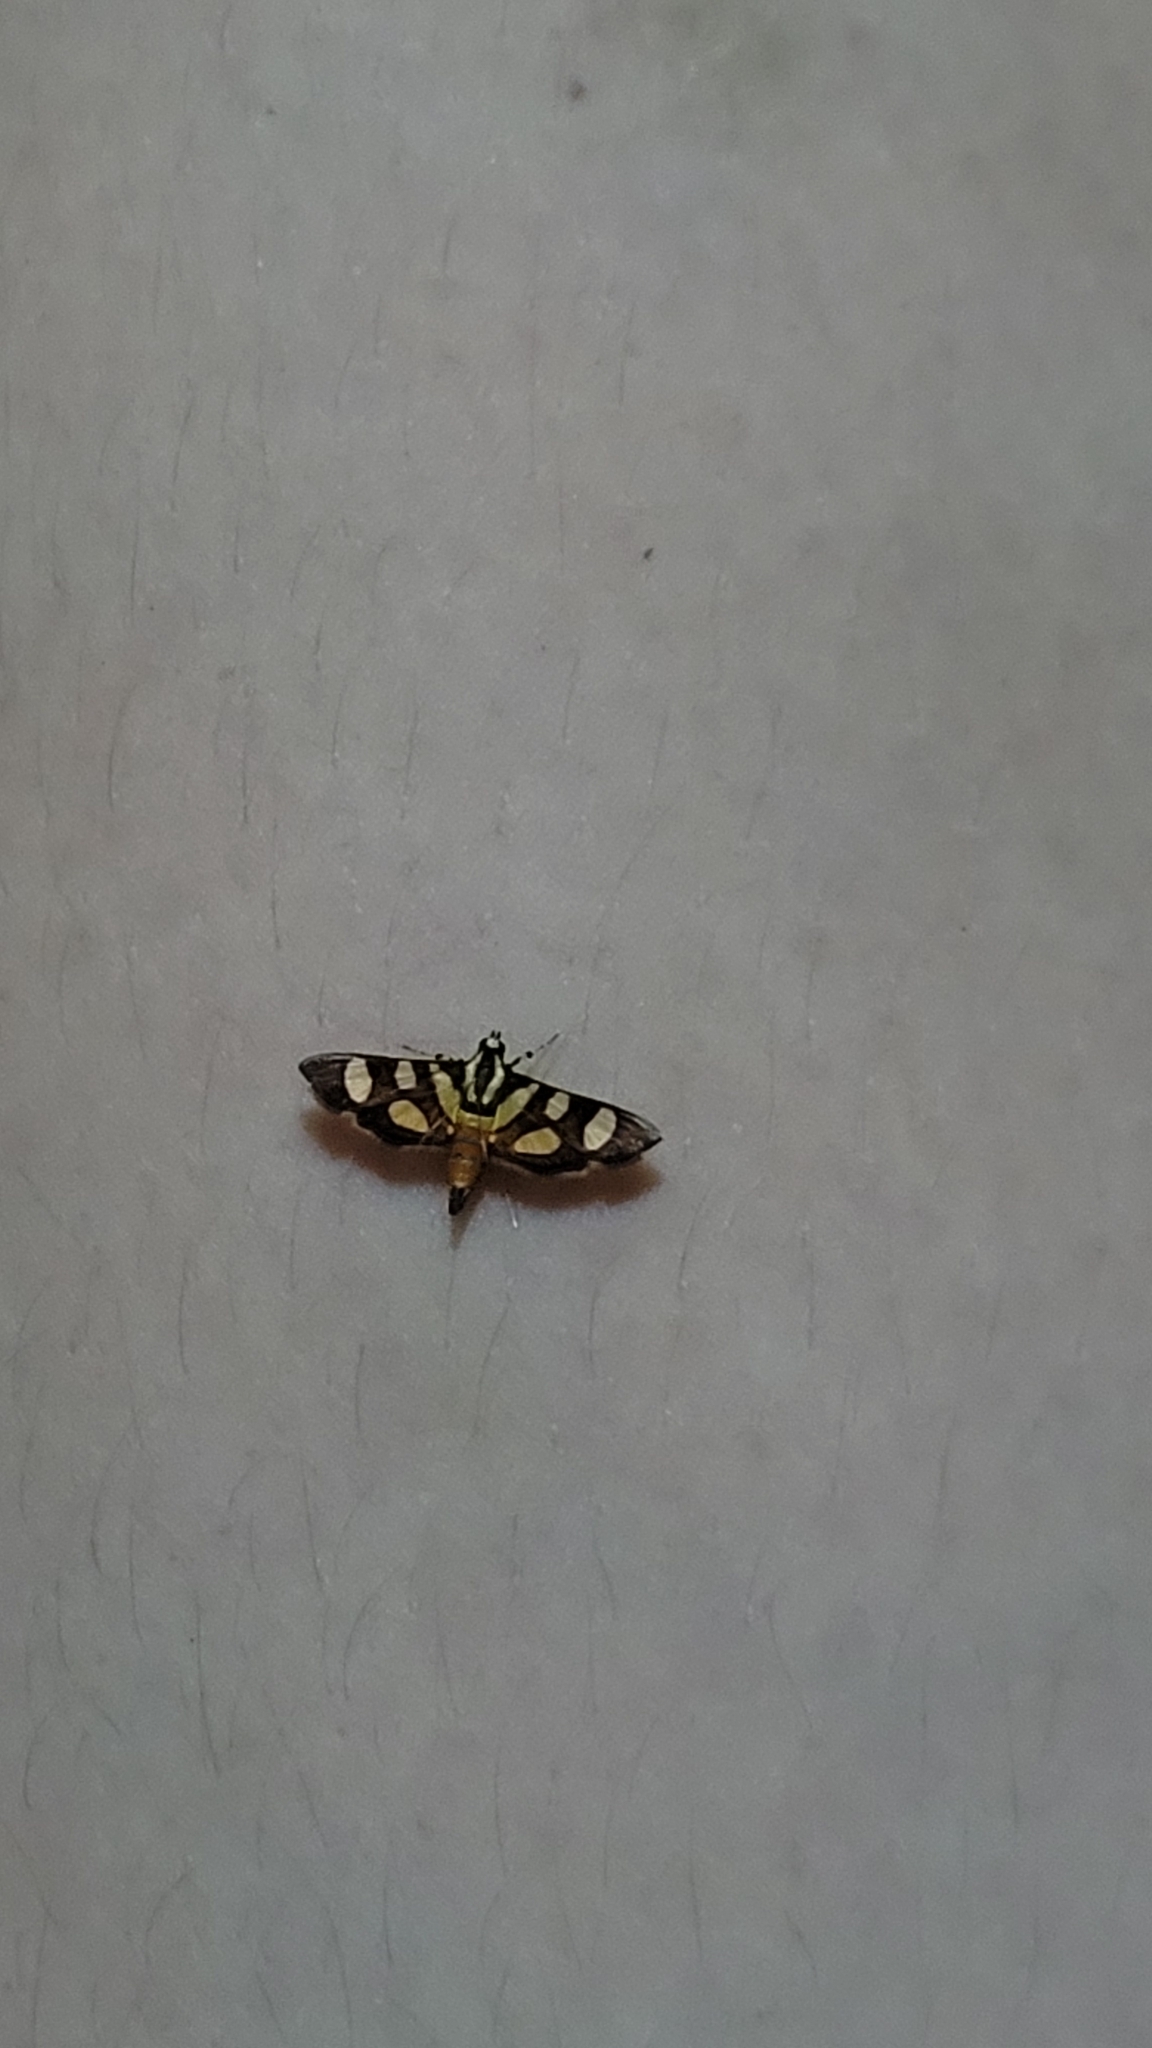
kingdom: Animalia
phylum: Arthropoda
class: Insecta
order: Lepidoptera
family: Crambidae
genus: Syngamia
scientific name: Syngamia florella
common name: Orange-spotted flower moth
